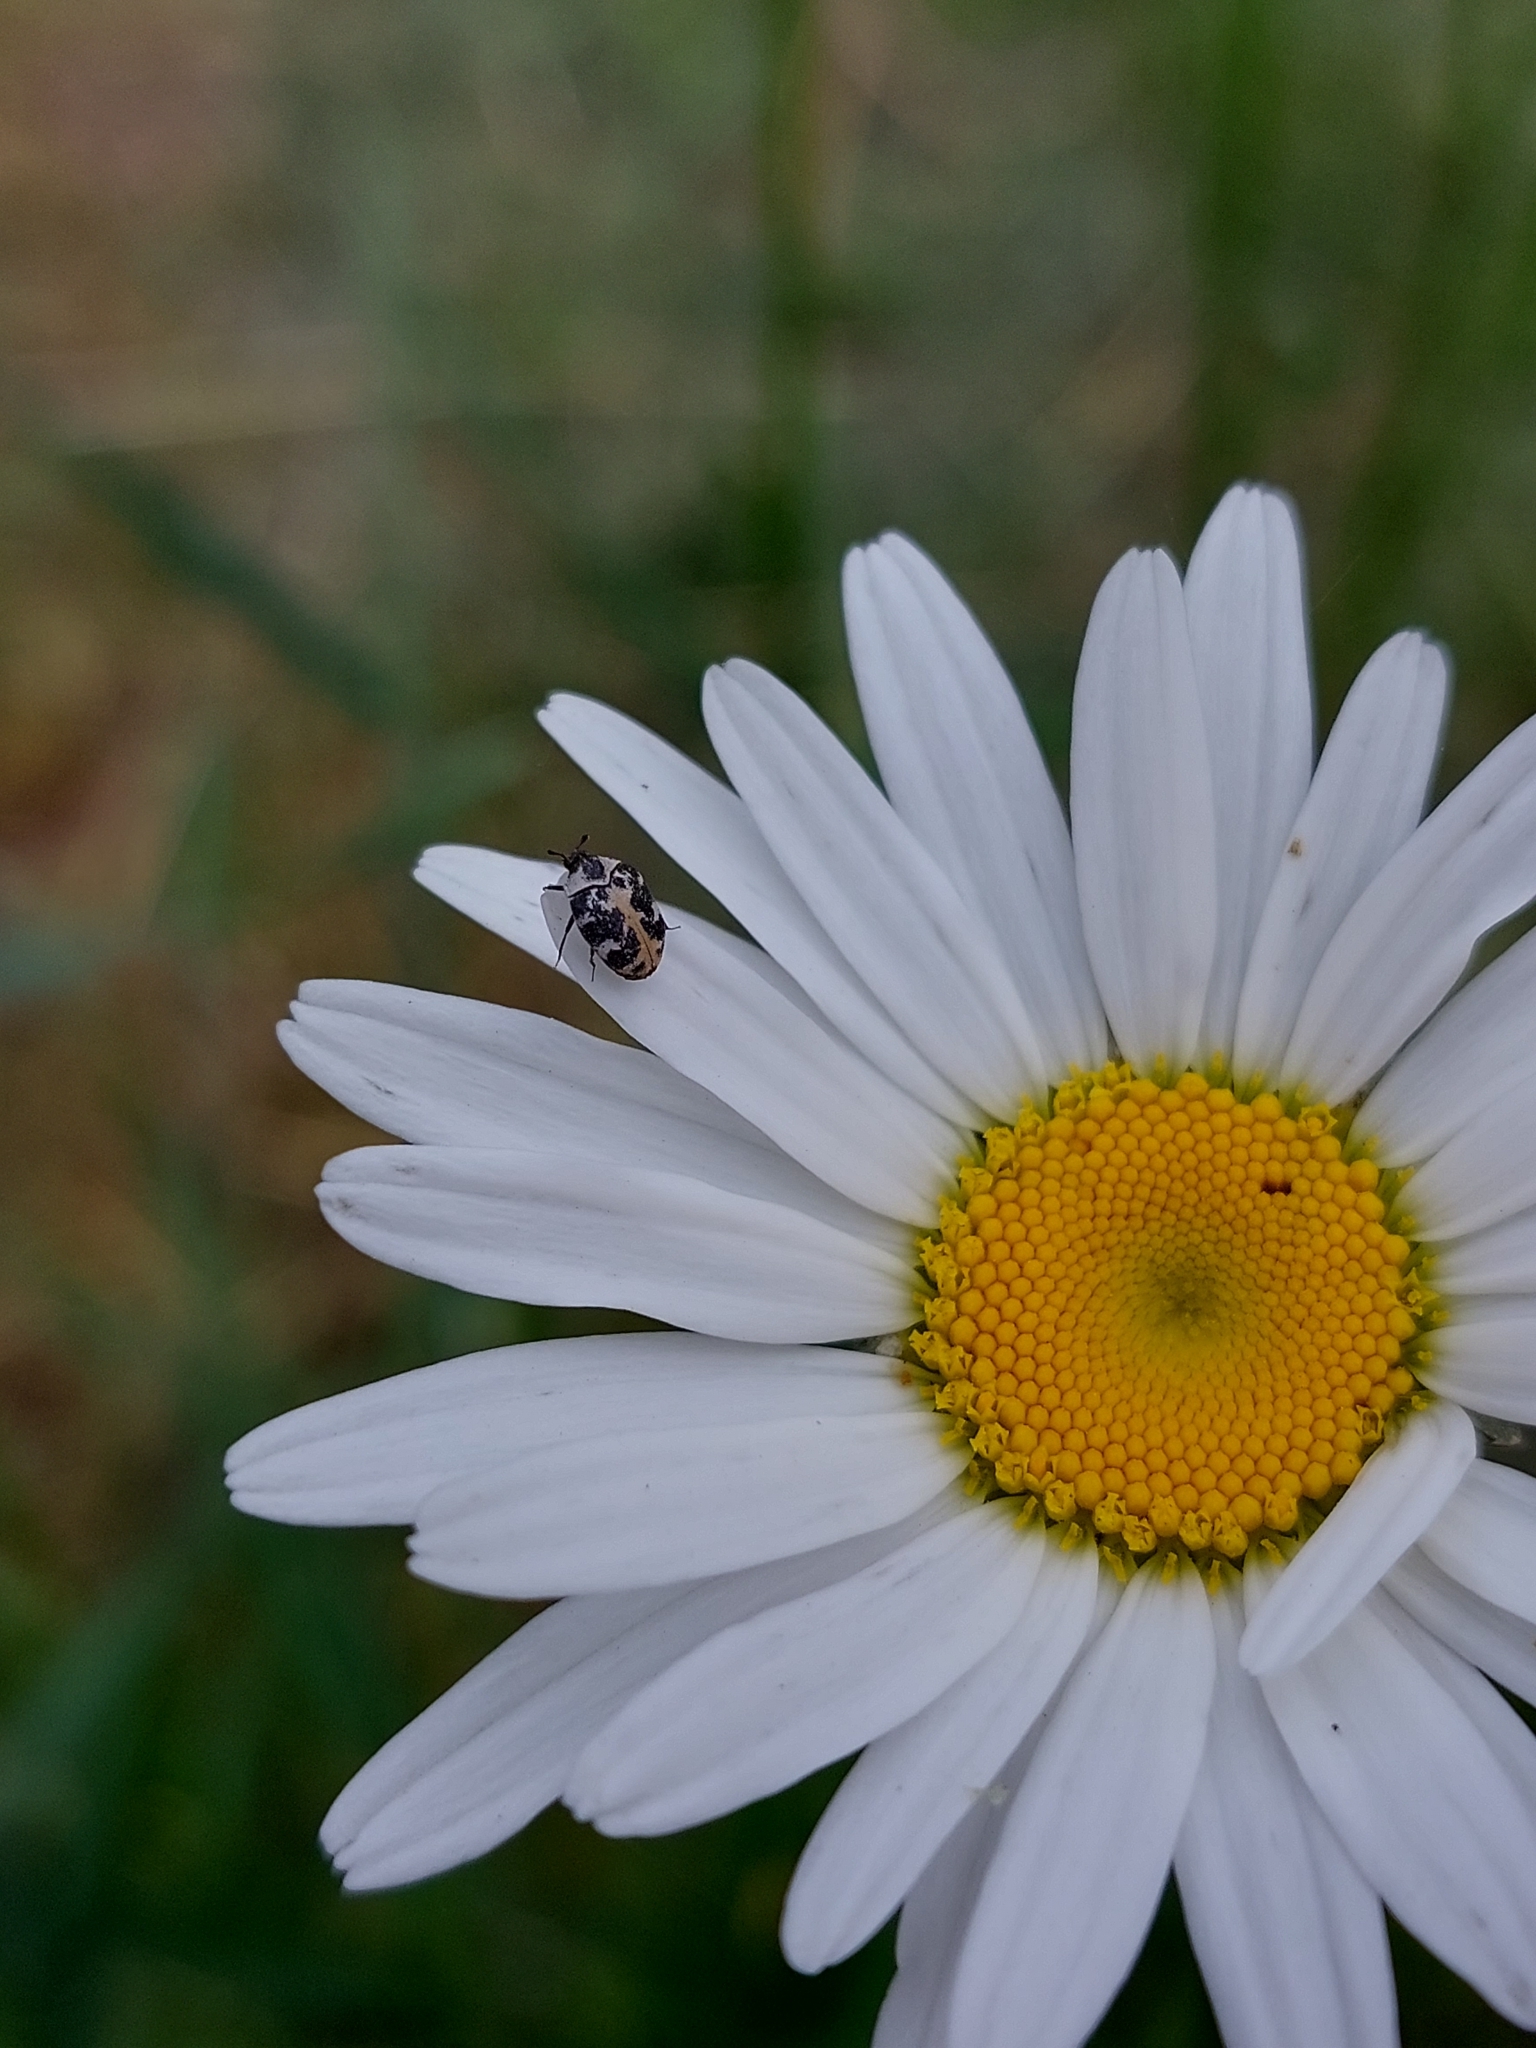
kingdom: Animalia
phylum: Arthropoda
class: Insecta
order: Coleoptera
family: Dermestidae
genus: Anthrenus
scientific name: Anthrenus scrophulariae
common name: Buffalo carpet beetle
